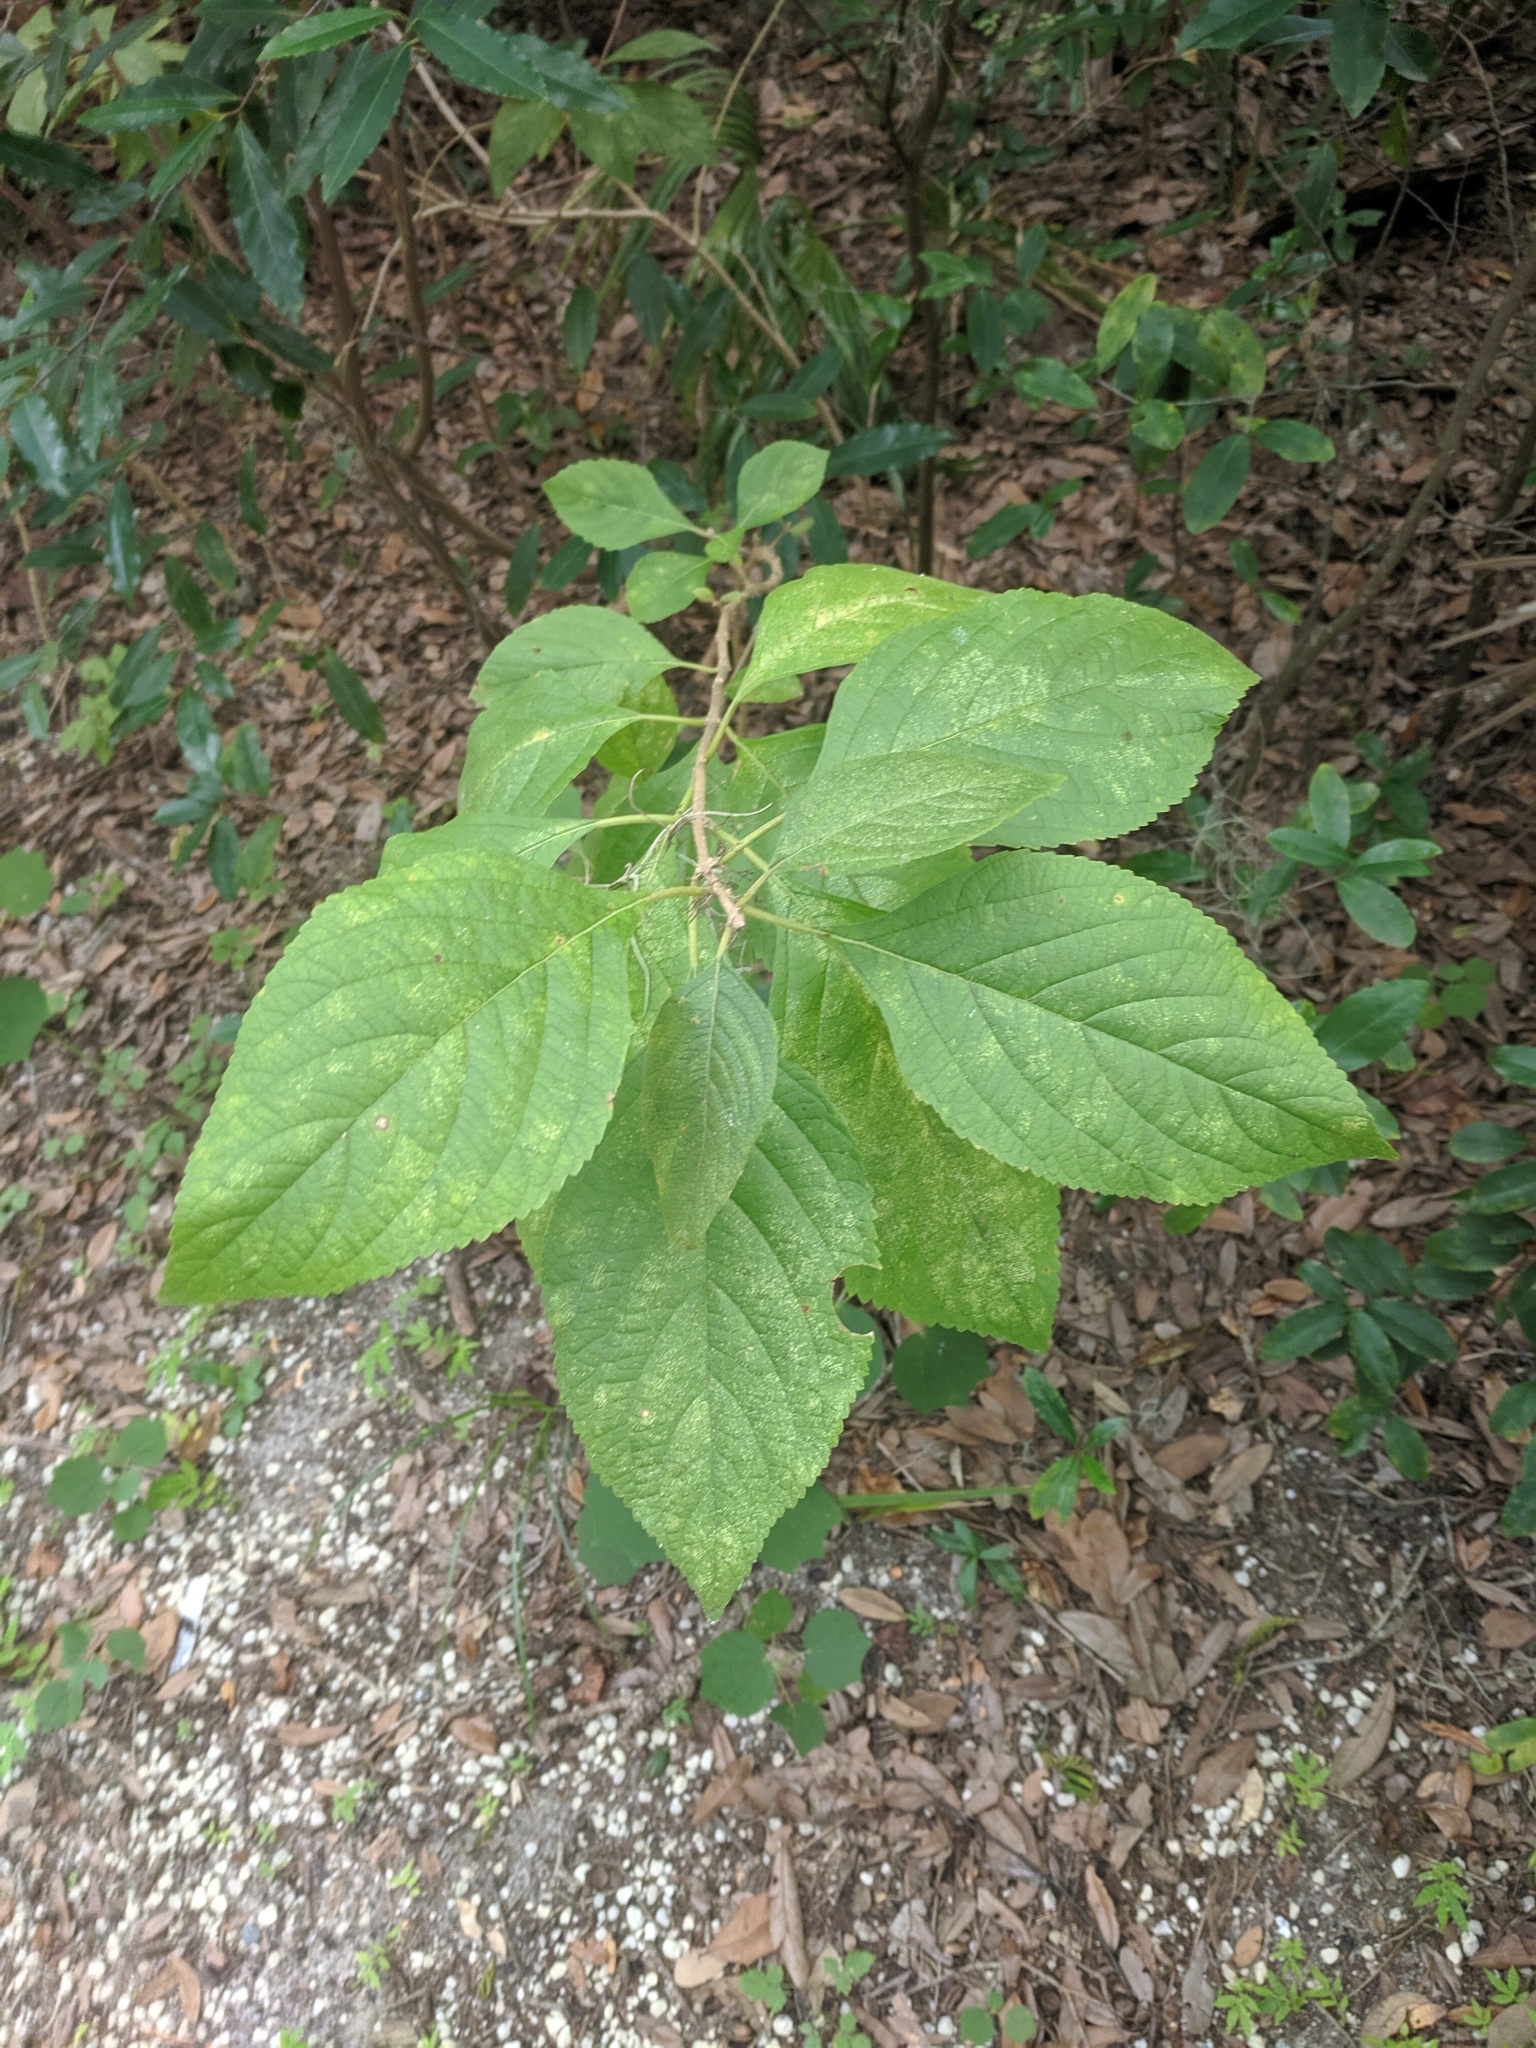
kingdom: Plantae
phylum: Tracheophyta
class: Magnoliopsida
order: Lamiales
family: Lamiaceae
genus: Callicarpa
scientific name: Callicarpa americana
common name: American beautyberry
